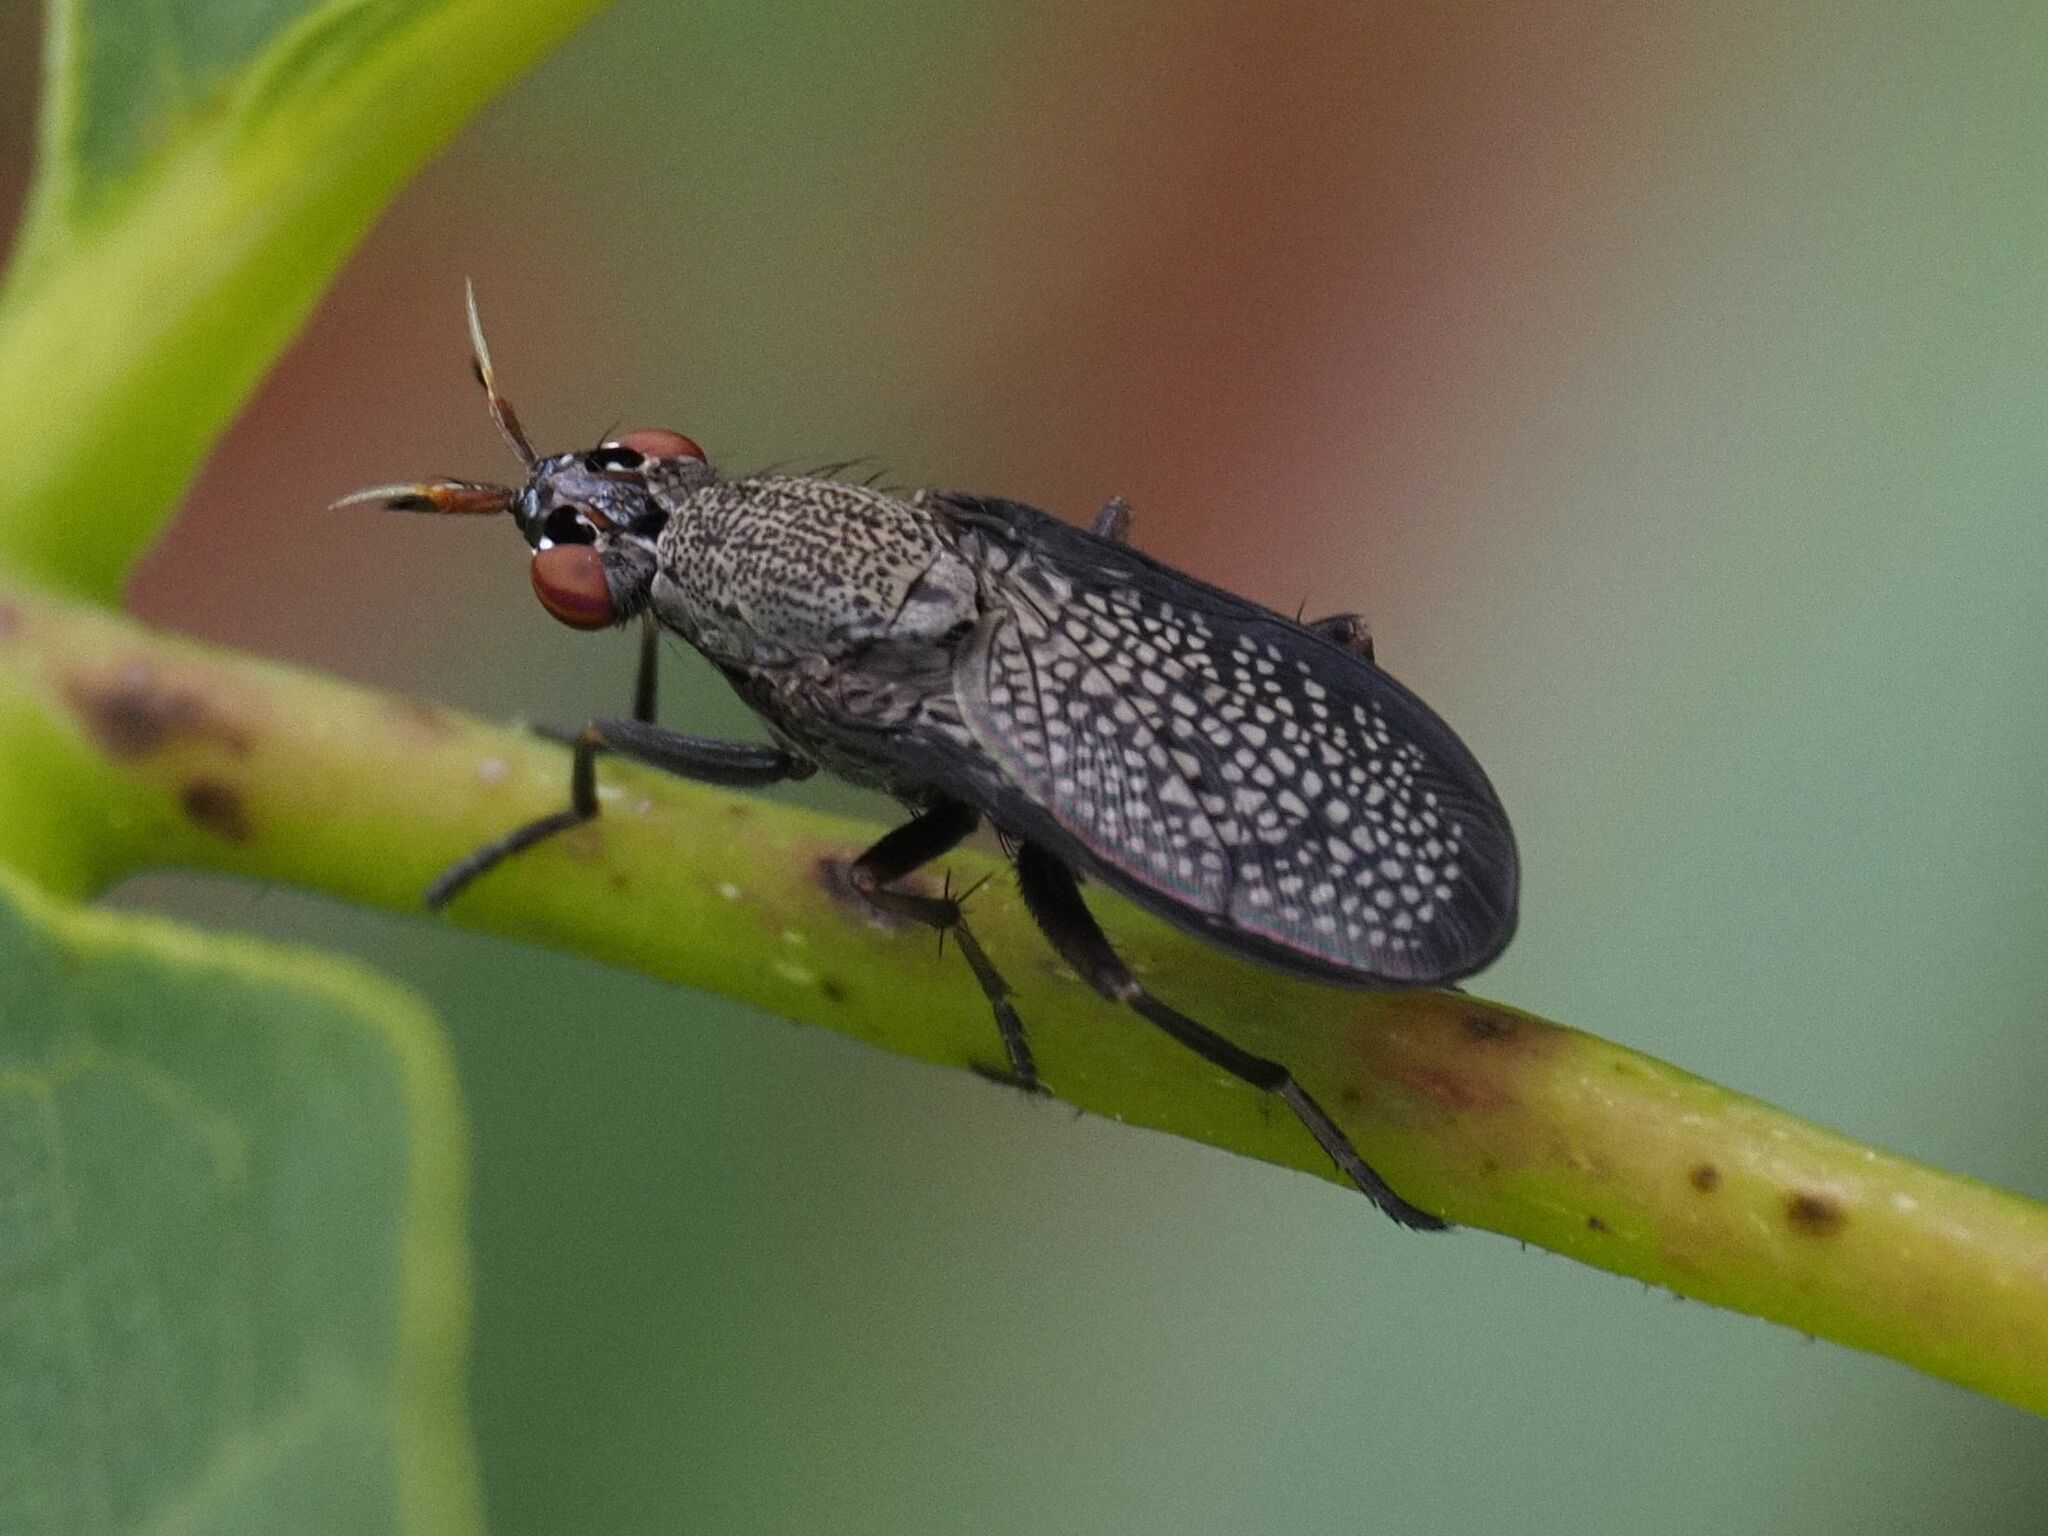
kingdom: Animalia
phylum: Arthropoda
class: Insecta
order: Diptera
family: Sciomyzidae
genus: Coremacera
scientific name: Coremacera marginata
